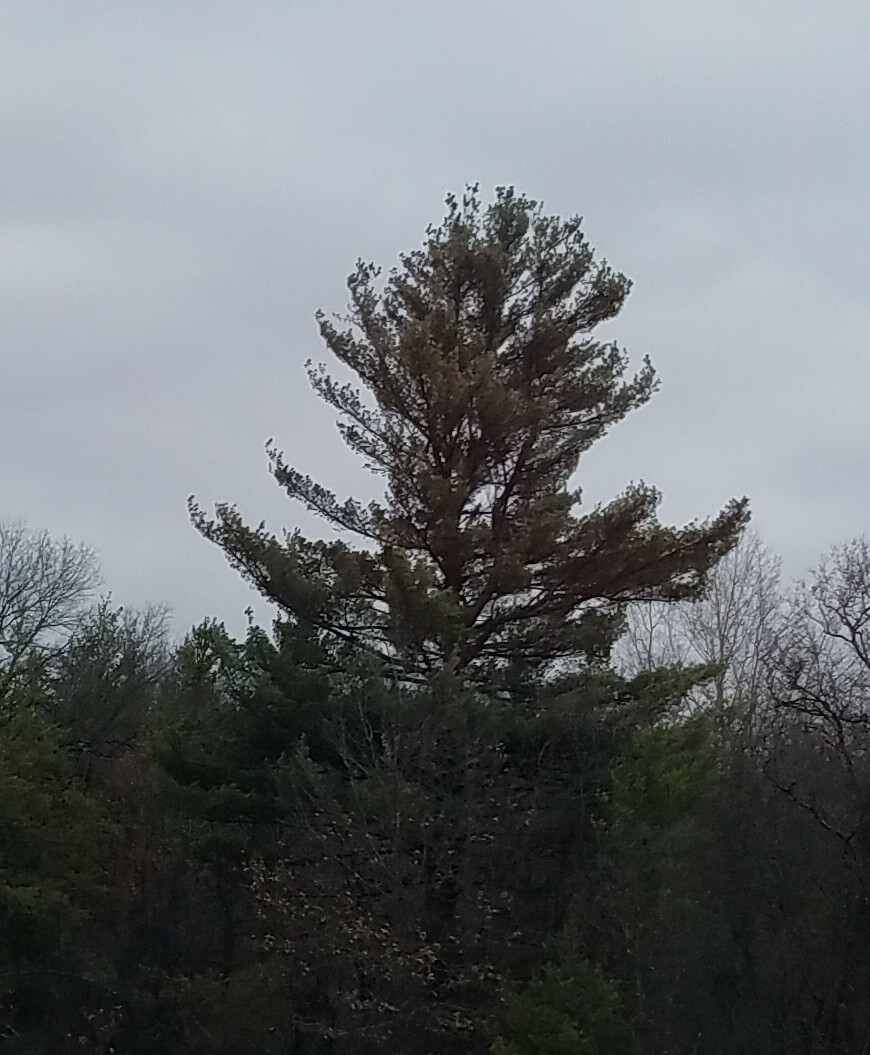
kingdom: Plantae
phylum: Tracheophyta
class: Pinopsida
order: Pinales
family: Pinaceae
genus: Pinus
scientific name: Pinus strobus
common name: Weymouth pine
